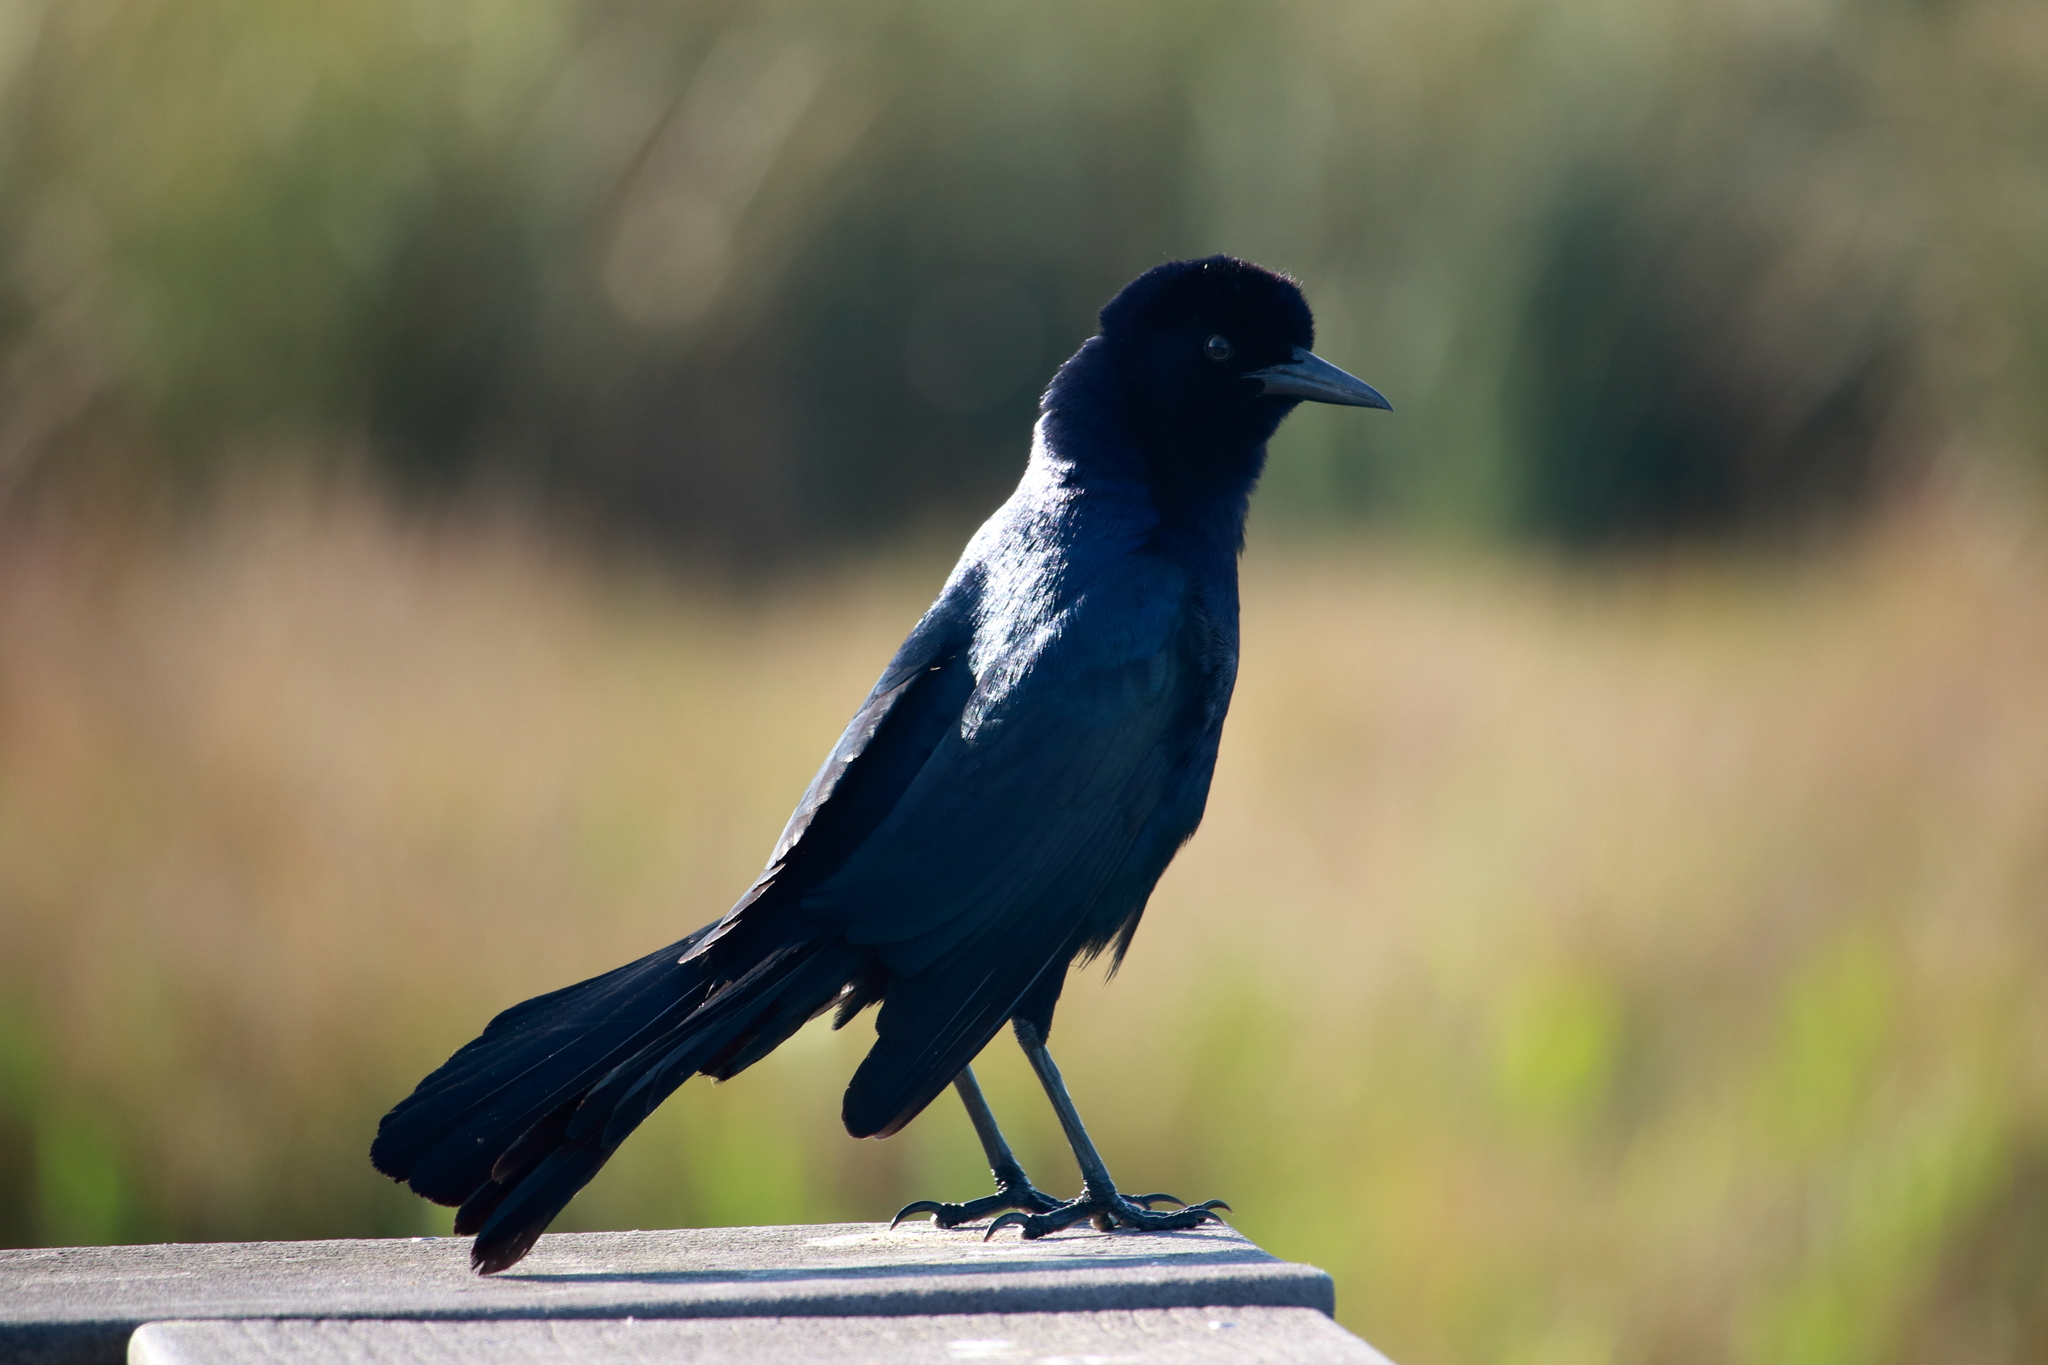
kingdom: Animalia
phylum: Chordata
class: Aves
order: Passeriformes
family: Icteridae
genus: Quiscalus
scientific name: Quiscalus major
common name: Boat-tailed grackle
